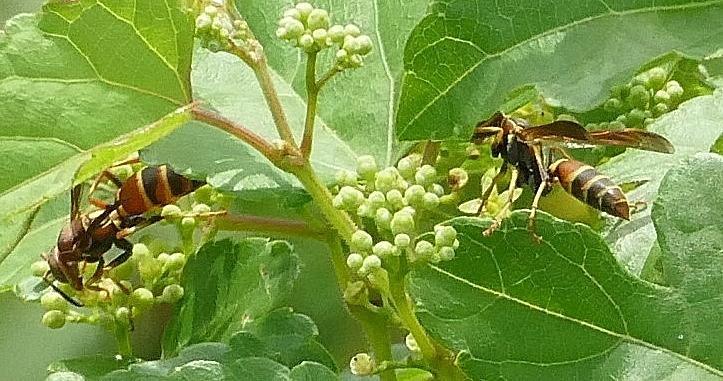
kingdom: Animalia
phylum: Arthropoda
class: Insecta
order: Hymenoptera
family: Eumenidae
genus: Polistes
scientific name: Polistes dorsalis
